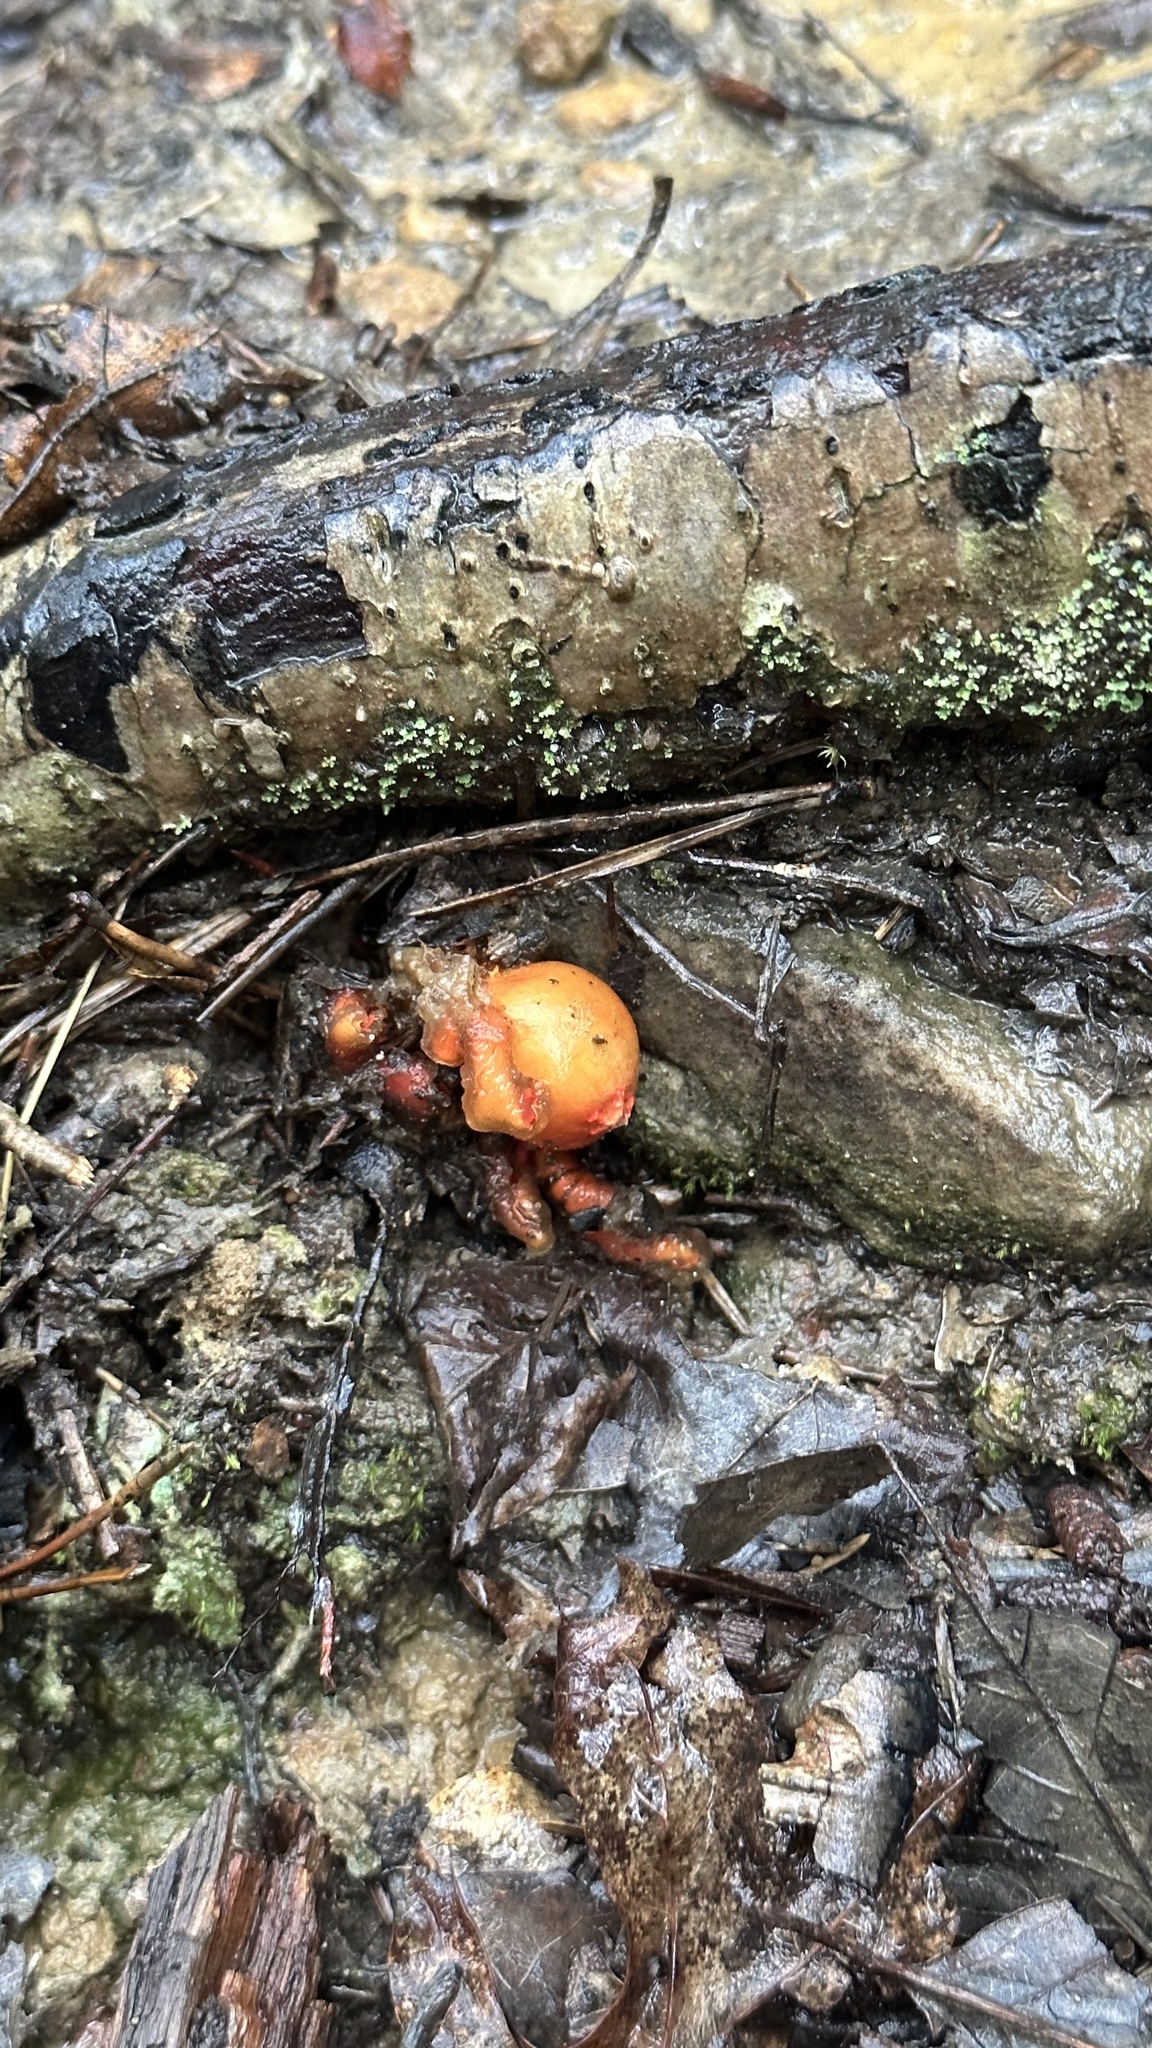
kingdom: Fungi
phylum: Basidiomycota
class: Agaricomycetes
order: Boletales
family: Calostomataceae
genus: Calostoma
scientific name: Calostoma cinnabarinum
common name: Stalked puffball-in-aspic
